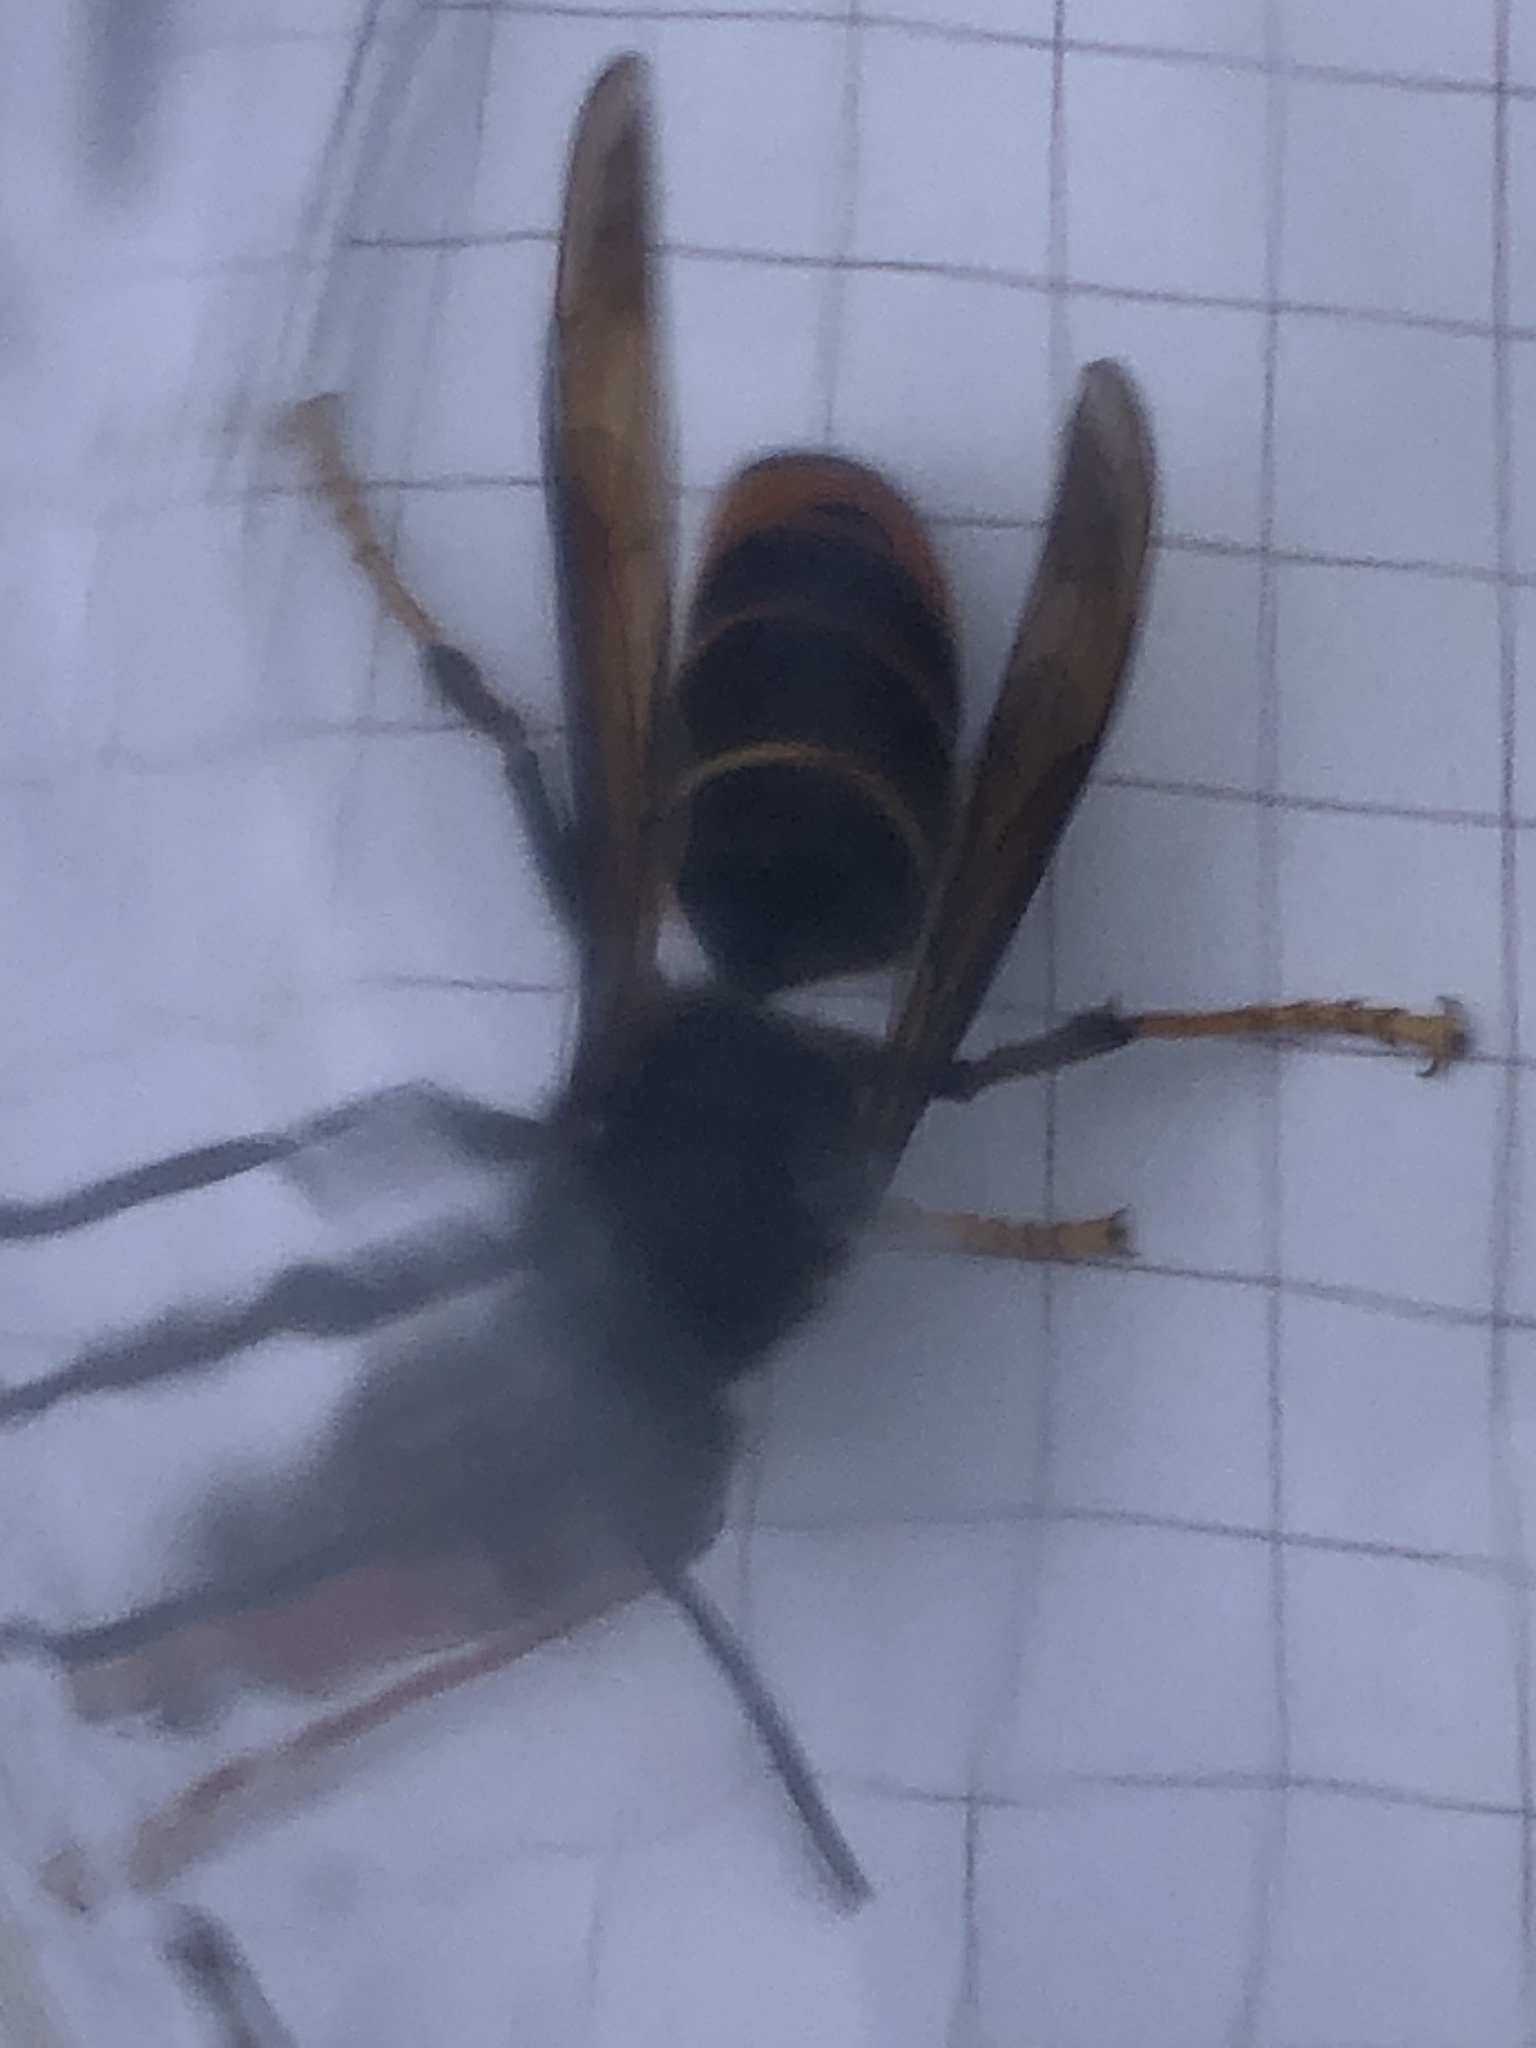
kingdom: Animalia
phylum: Arthropoda
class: Insecta
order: Hymenoptera
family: Vespidae
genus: Vespa
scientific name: Vespa velutina
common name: Asian hornet
